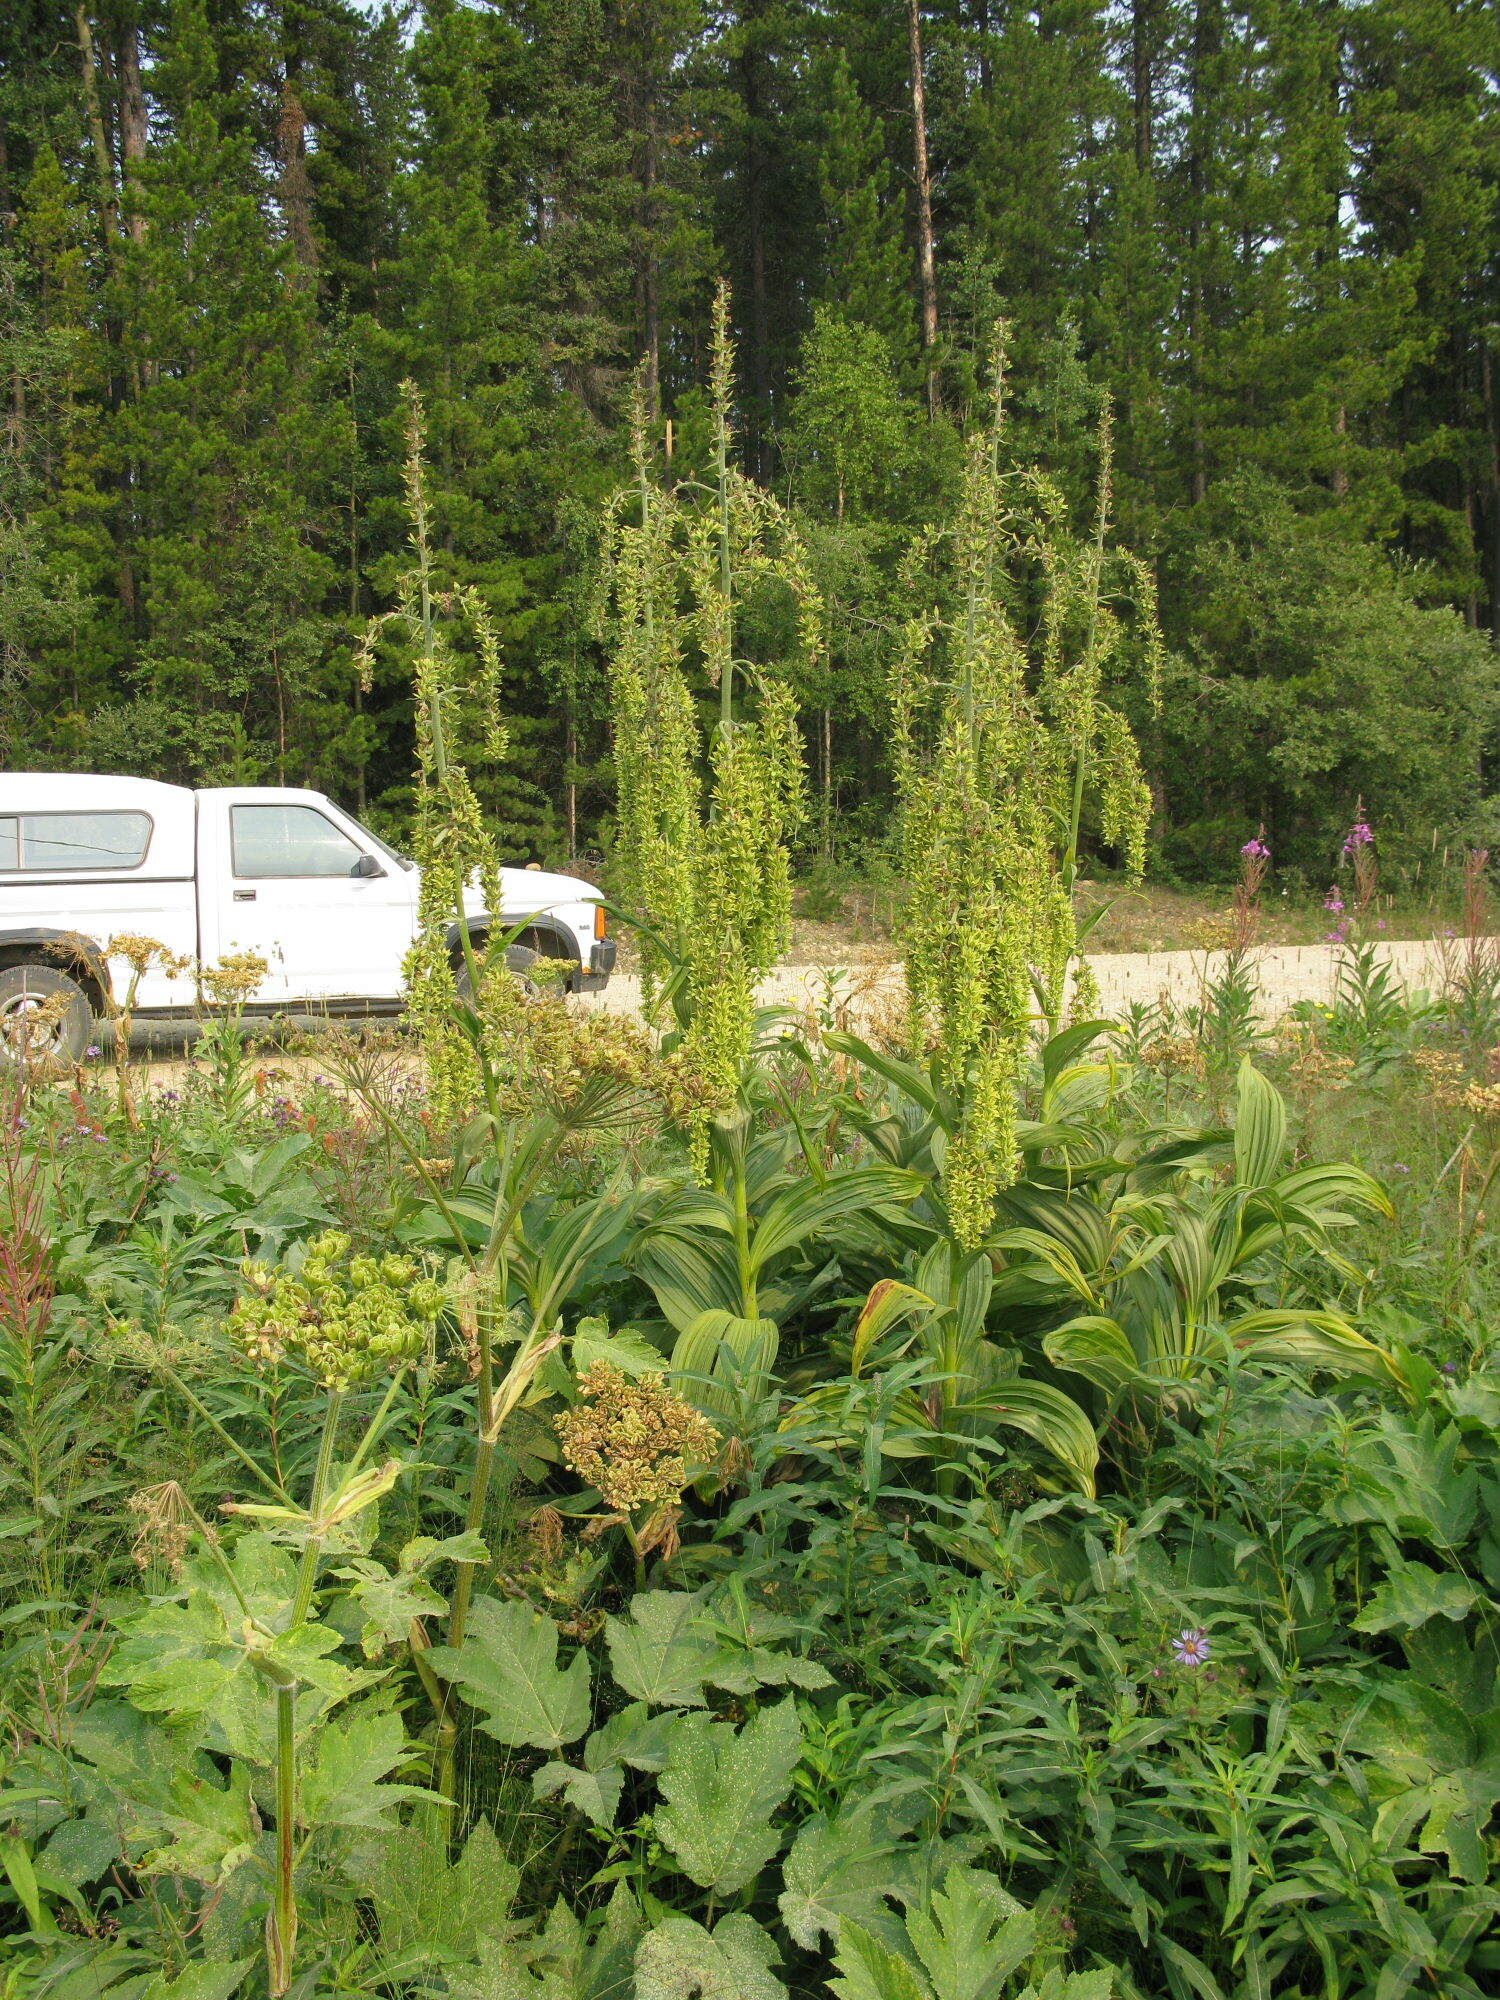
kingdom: Plantae
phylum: Tracheophyta
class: Liliopsida
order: Liliales
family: Melanthiaceae
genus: Veratrum
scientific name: Veratrum viride
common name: American false hellebore
